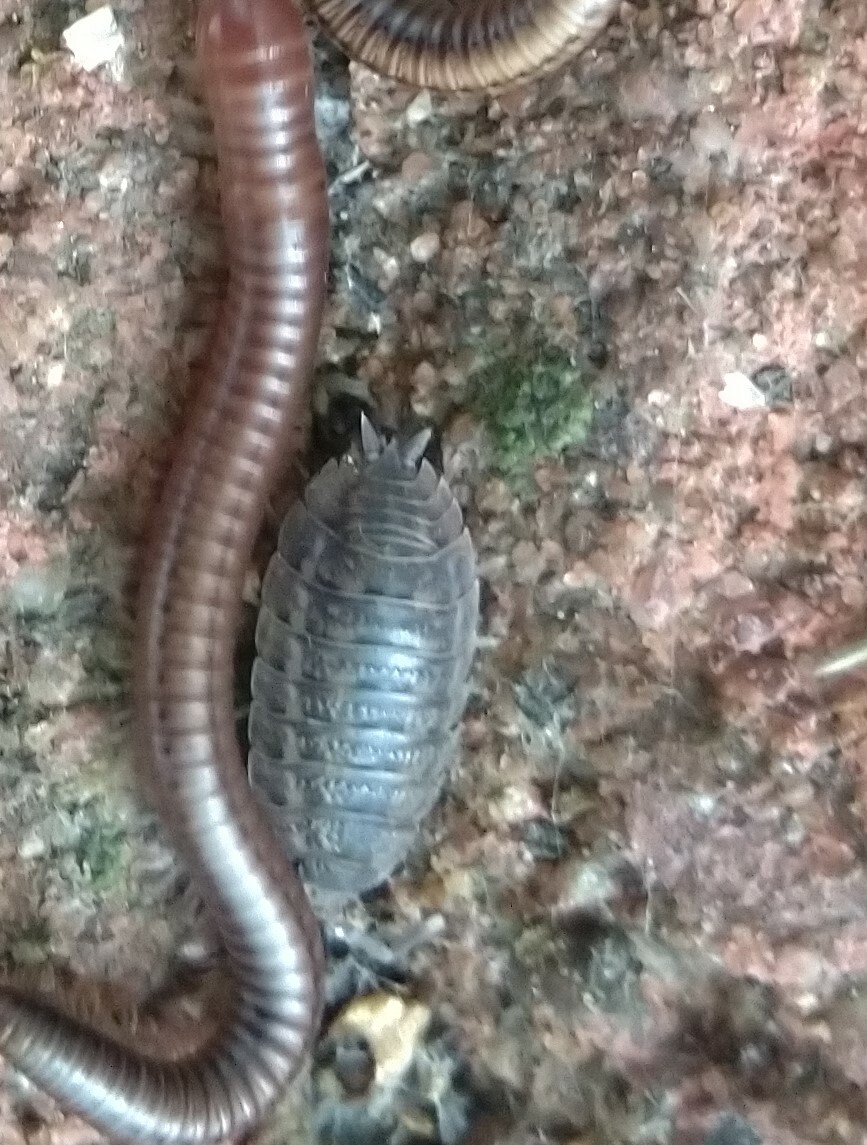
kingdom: Animalia
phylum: Arthropoda
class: Malacostraca
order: Isopoda
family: Trachelipodidae
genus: Trachelipus
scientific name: Trachelipus rathkii
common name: Isopod
